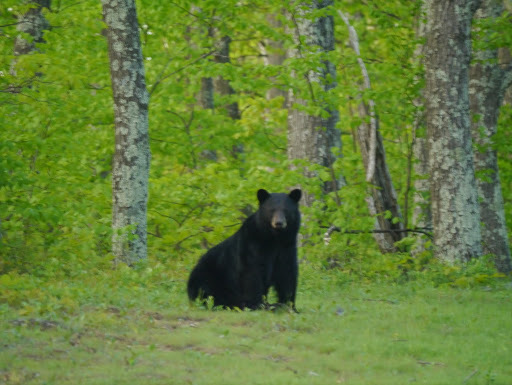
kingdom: Animalia
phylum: Chordata
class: Mammalia
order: Carnivora
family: Ursidae
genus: Ursus
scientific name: Ursus americanus
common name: American black bear
